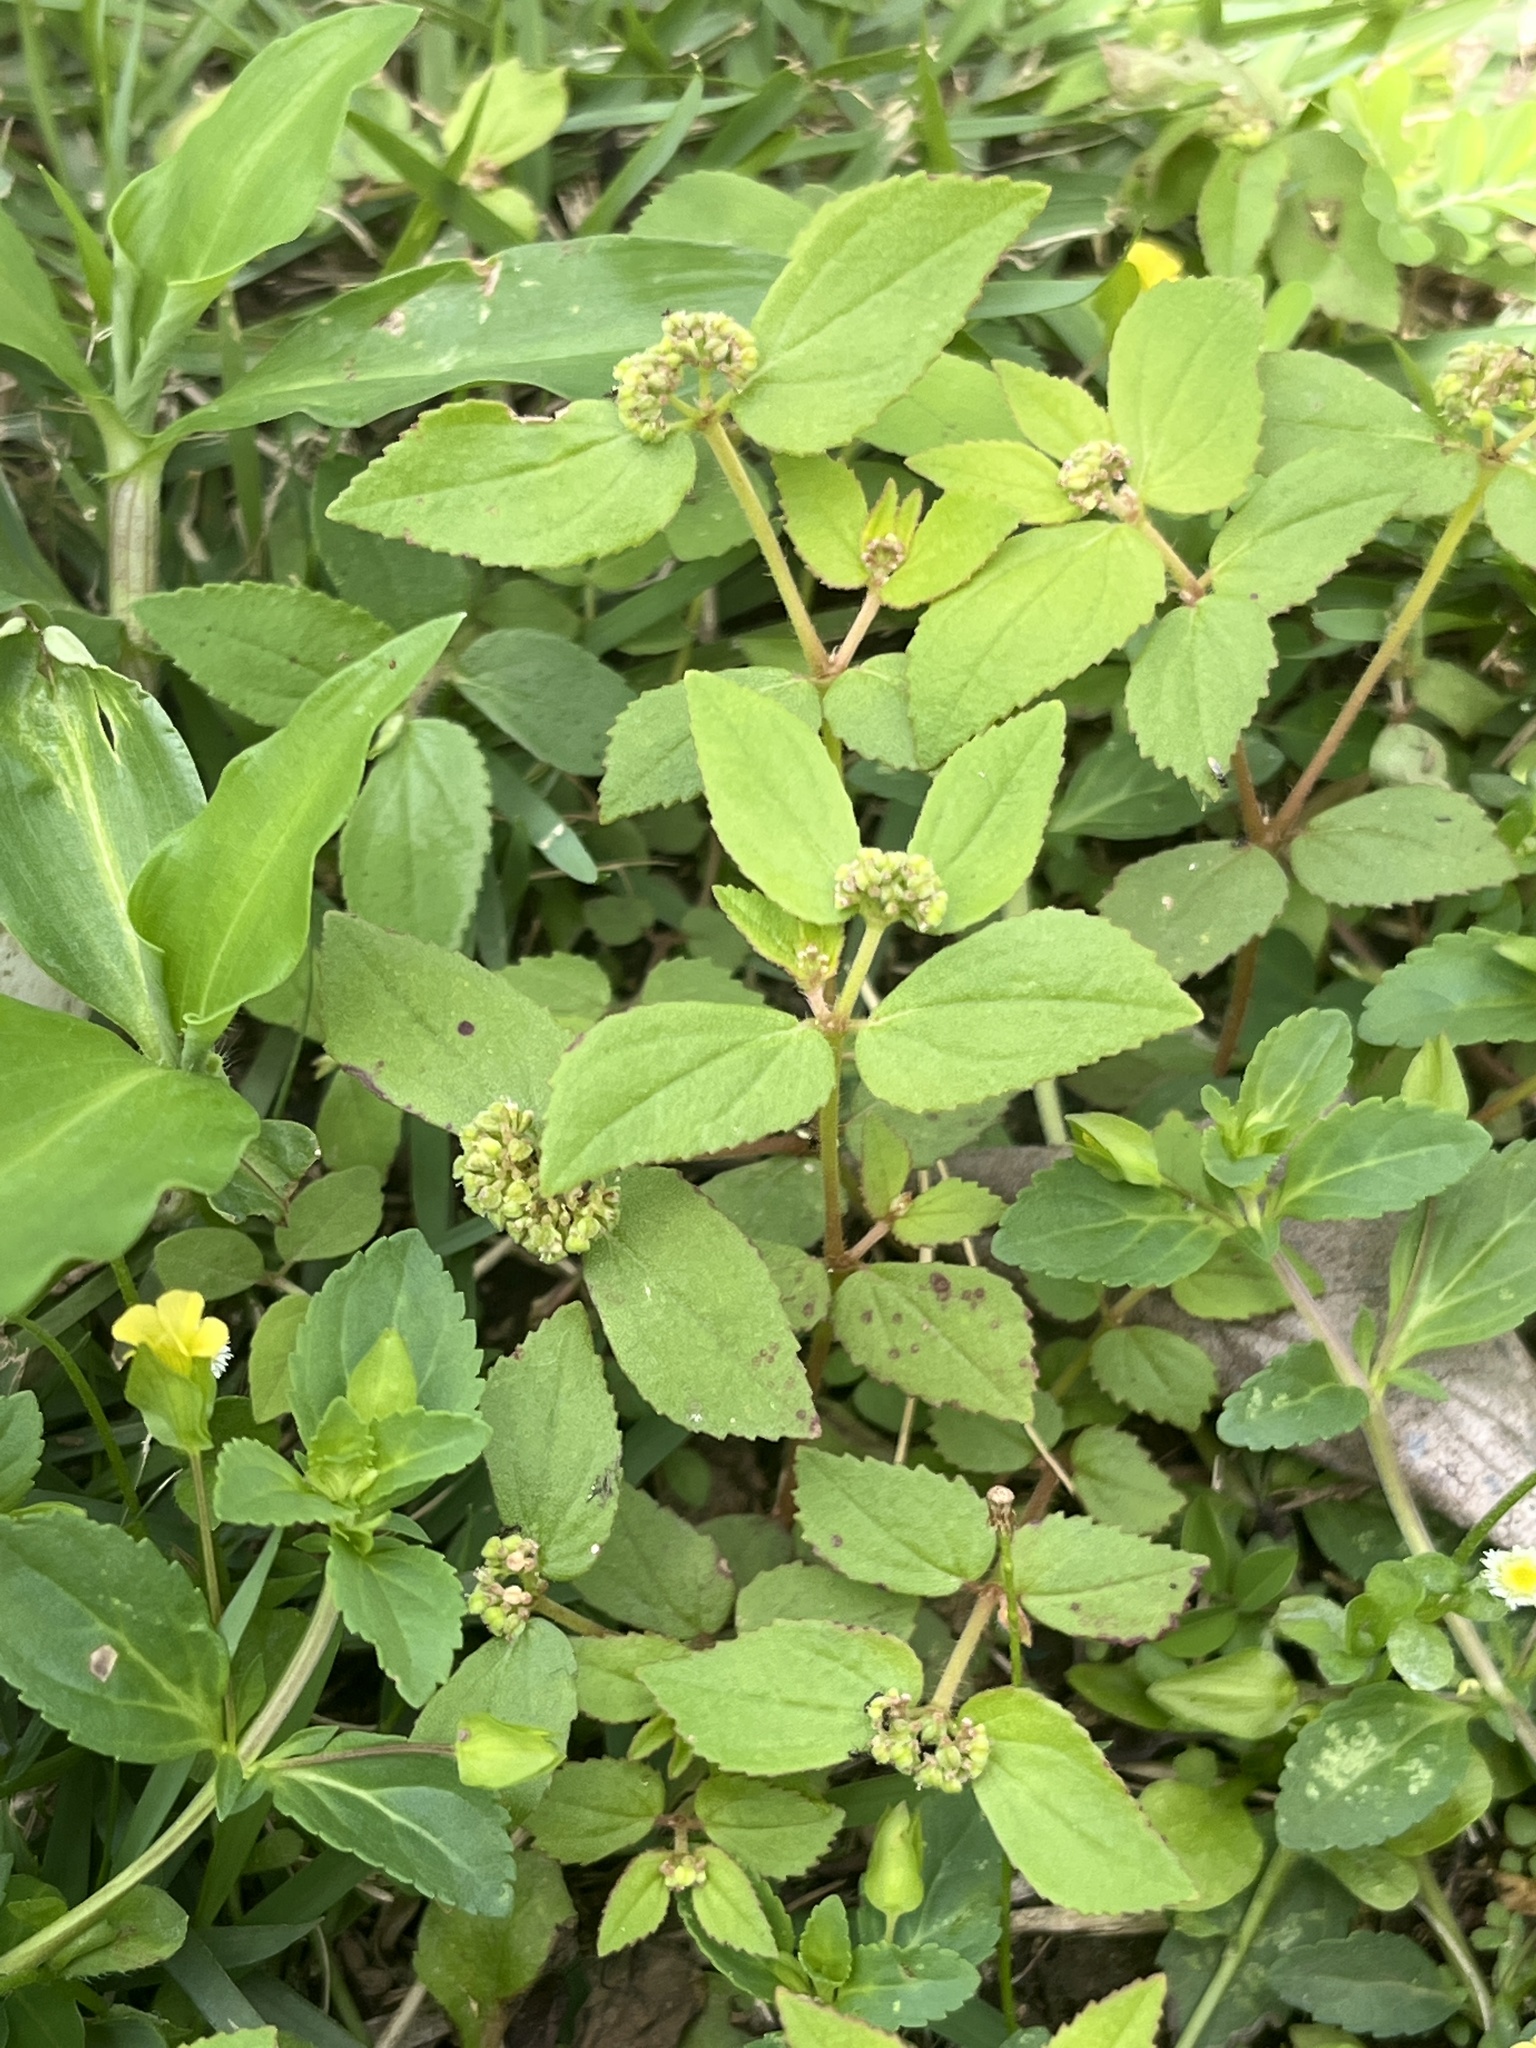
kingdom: Plantae
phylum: Tracheophyta
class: Magnoliopsida
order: Malpighiales
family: Euphorbiaceae
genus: Euphorbia
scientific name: Euphorbia ophthalmica
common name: Florida hammock sandmat
